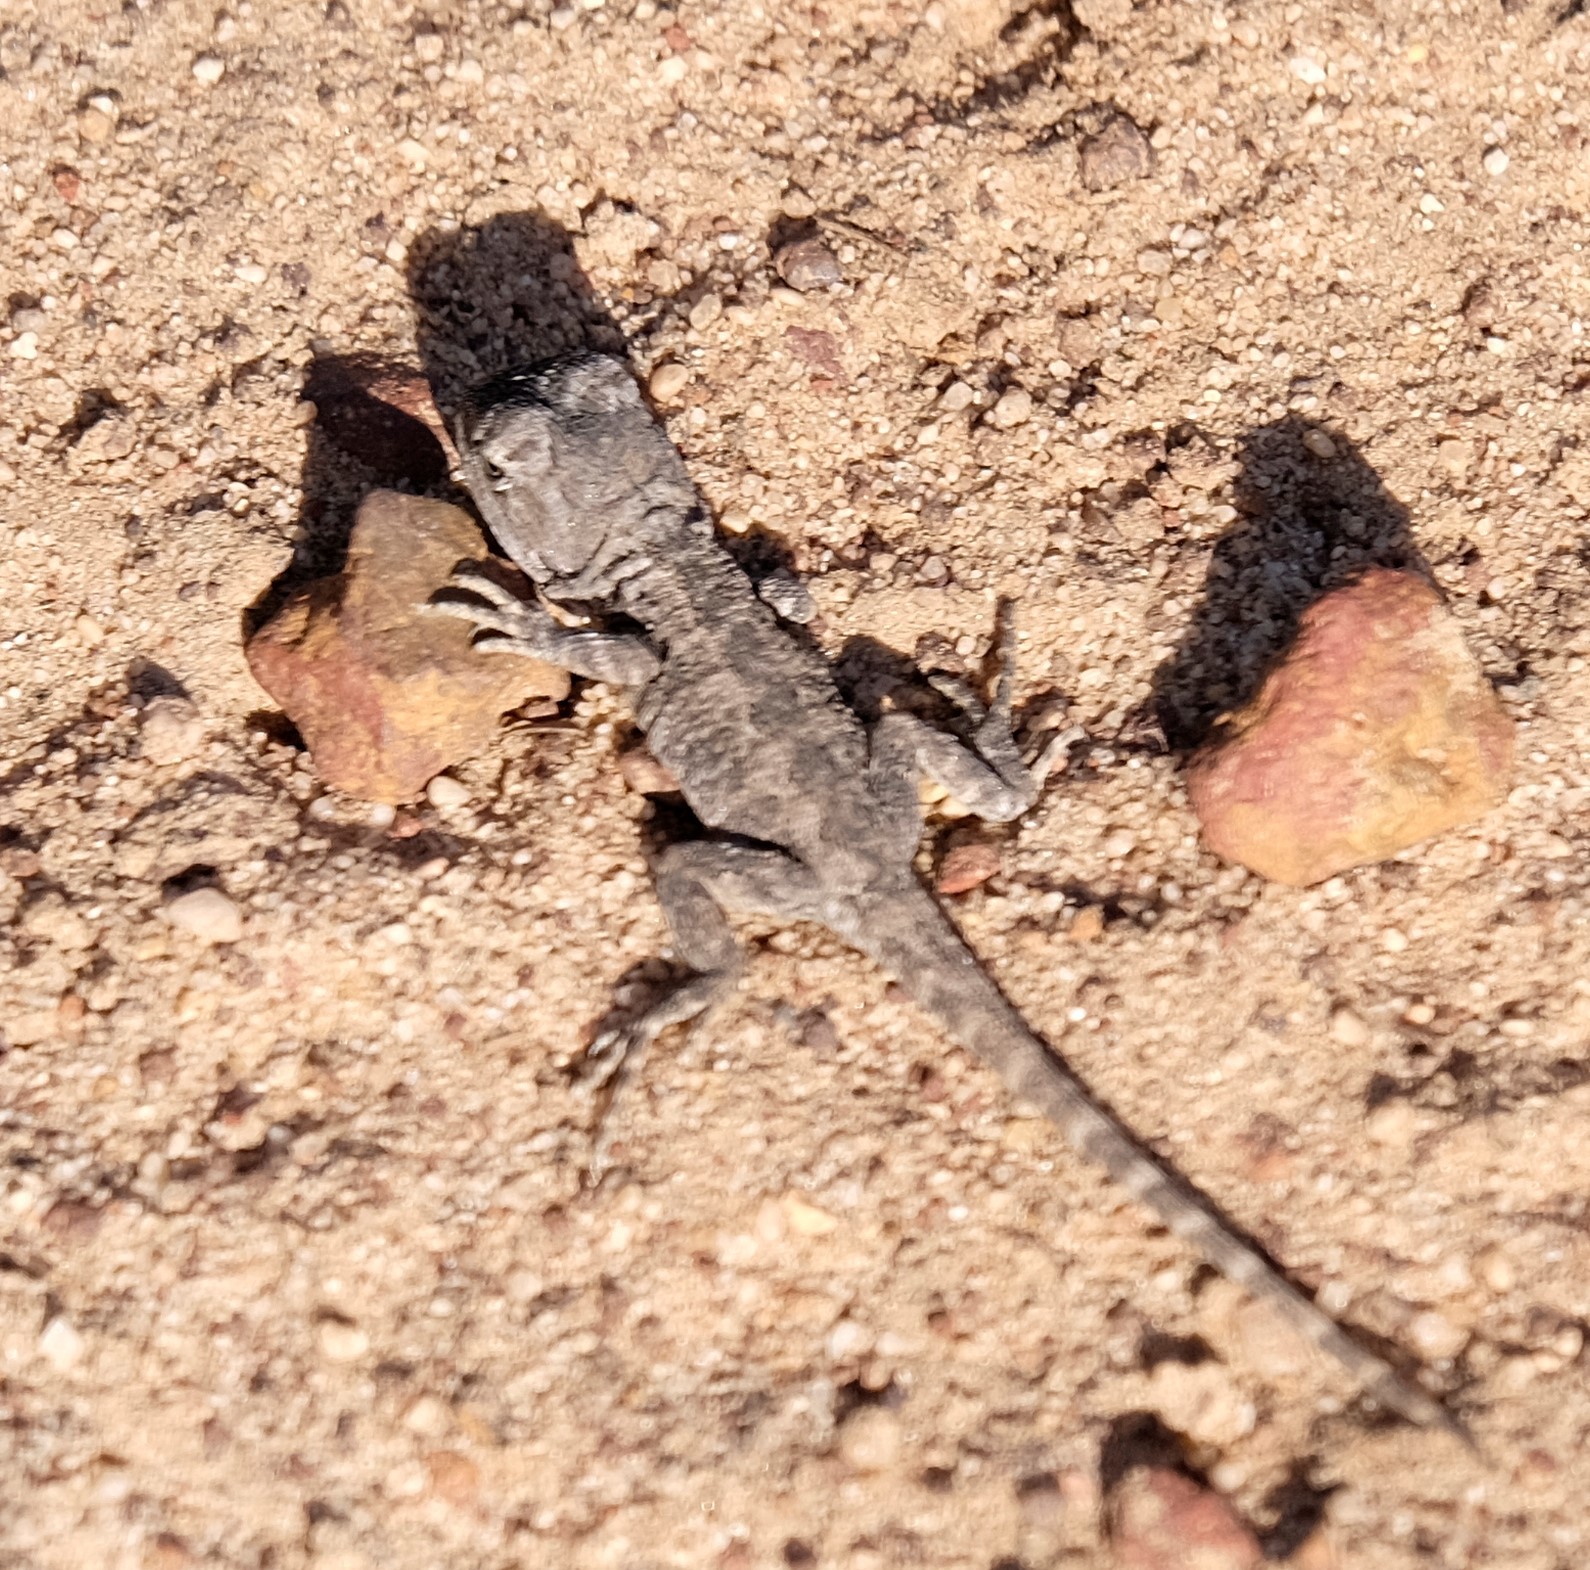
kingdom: Animalia
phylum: Chordata
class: Squamata
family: Agamidae
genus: Amphibolurus
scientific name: Amphibolurus muricatus
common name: Jacky lizard
